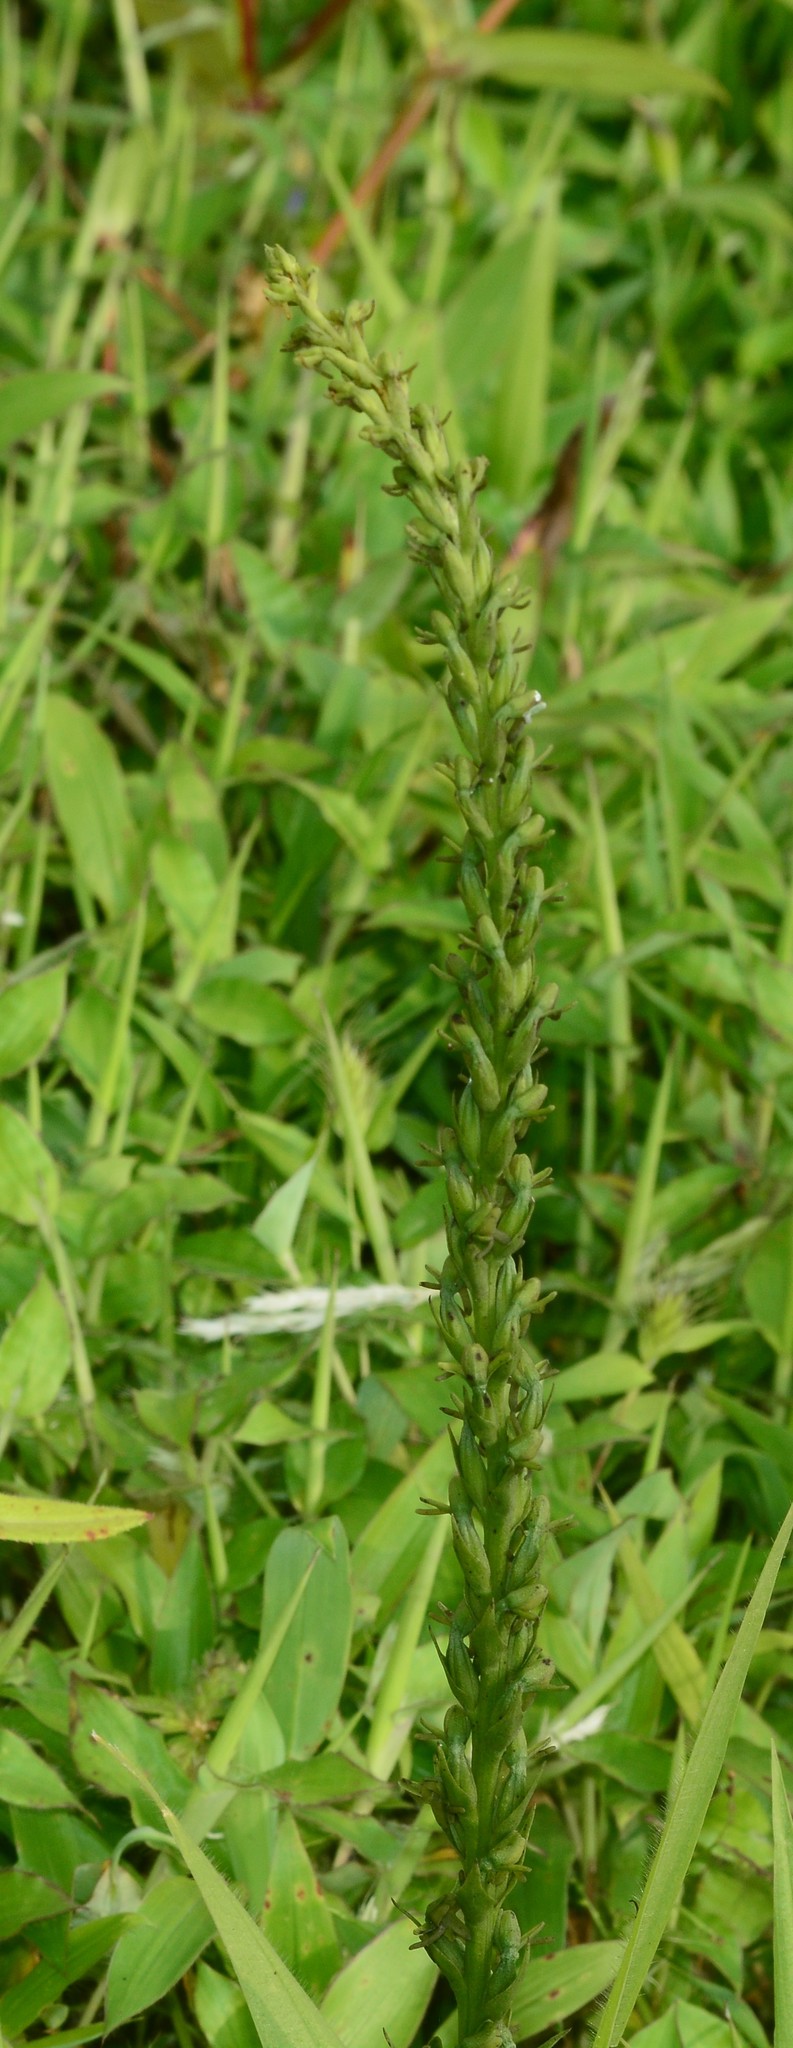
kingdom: Plantae
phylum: Tracheophyta
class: Liliopsida
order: Asparagales
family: Orchidaceae
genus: Peristylus
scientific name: Peristylus densus
